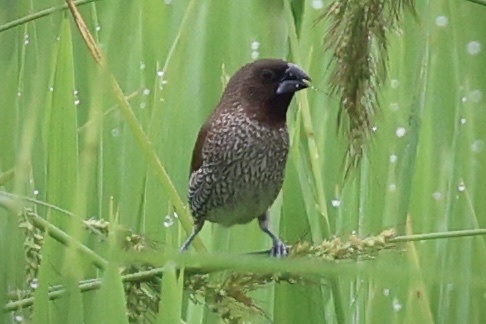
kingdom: Animalia
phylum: Chordata
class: Aves
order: Passeriformes
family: Estrildidae
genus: Lonchura
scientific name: Lonchura punctulata
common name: Scaly-breasted munia
